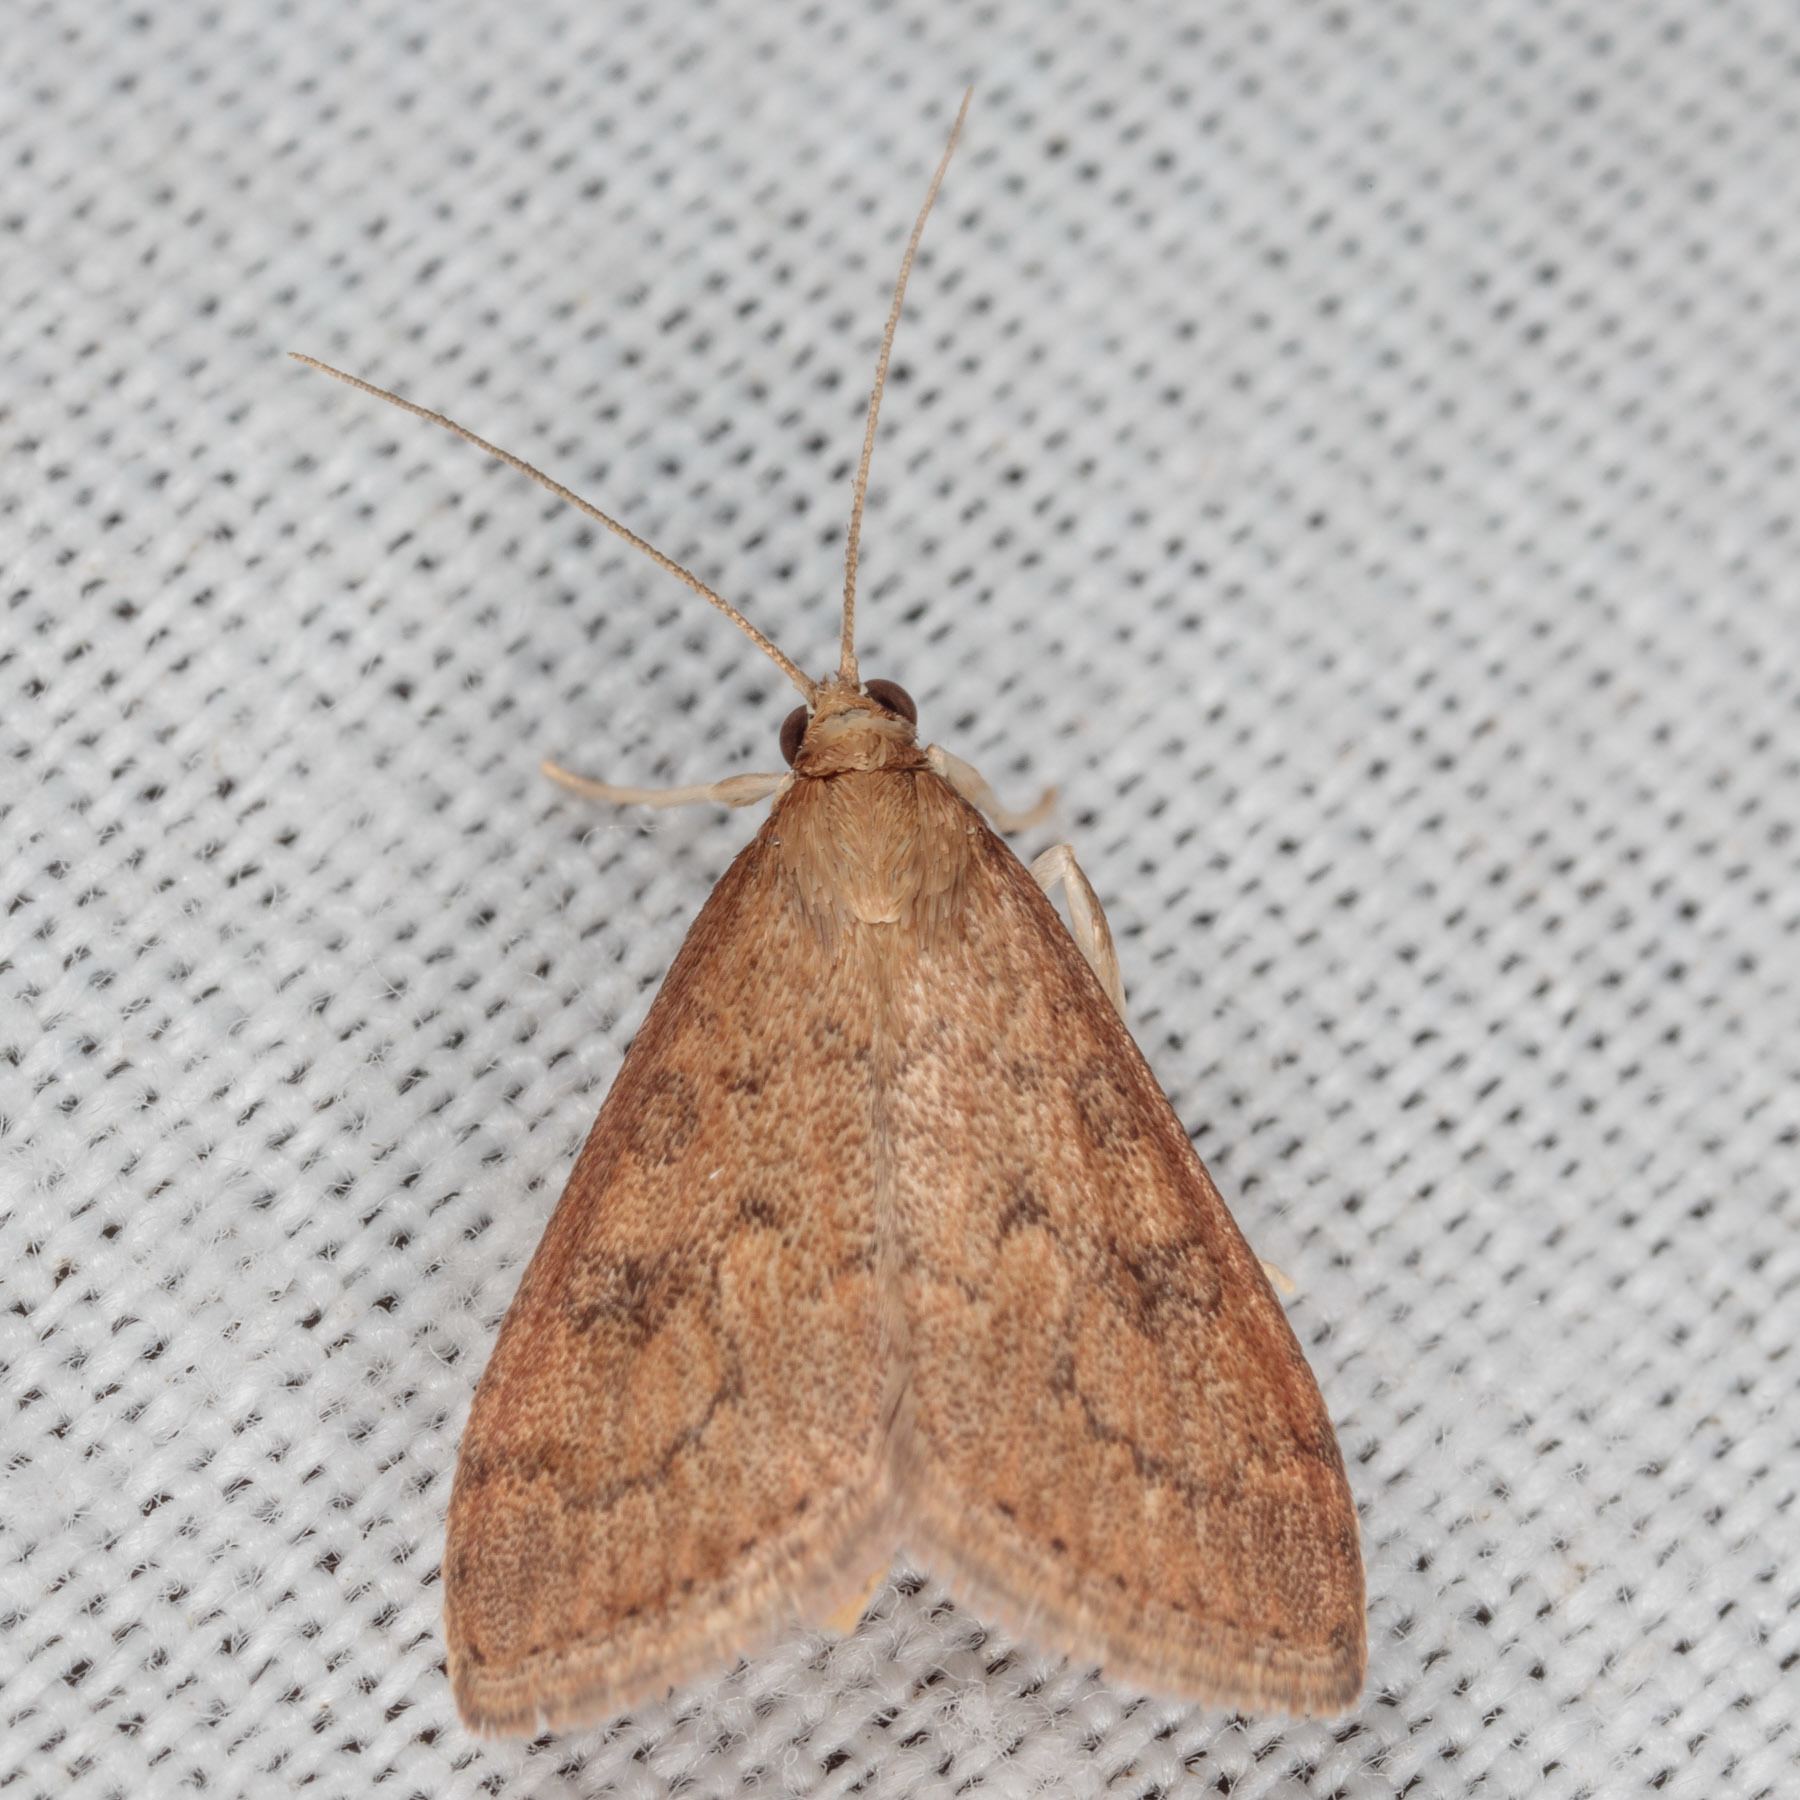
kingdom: Animalia
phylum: Arthropoda
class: Insecta
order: Lepidoptera
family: Crambidae
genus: Udea
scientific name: Udea rubigalis
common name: Celery leaftier moth
